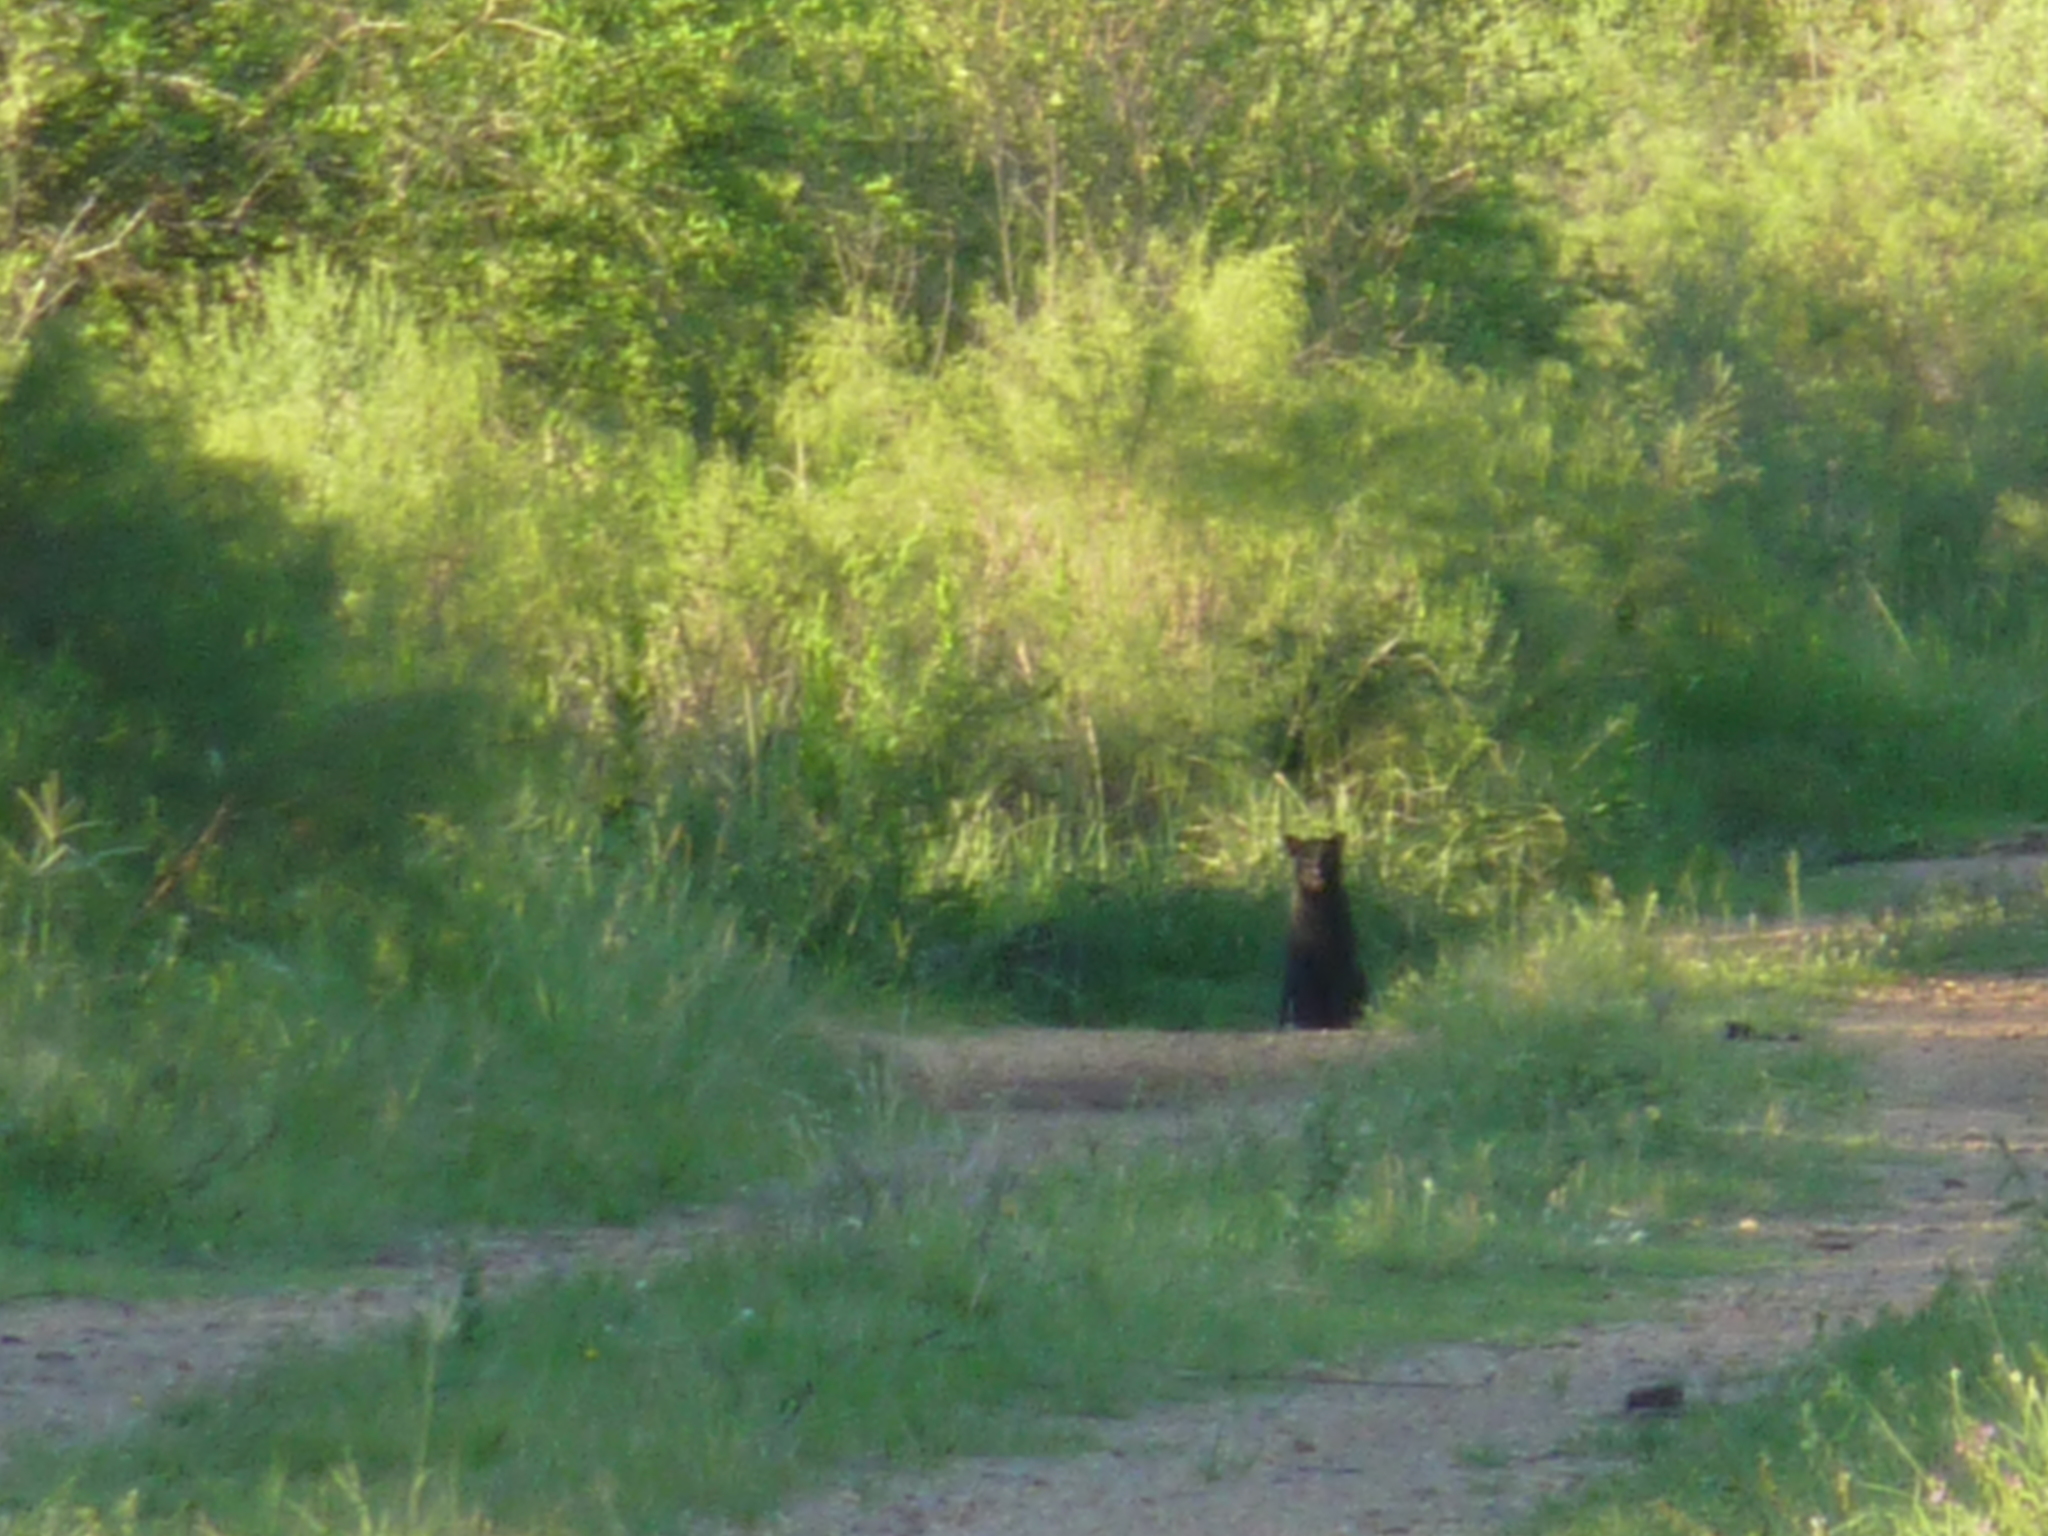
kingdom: Animalia
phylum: Chordata
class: Mammalia
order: Carnivora
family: Felidae
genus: Puma
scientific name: Puma yagouaroundi
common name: Jaguarundi
